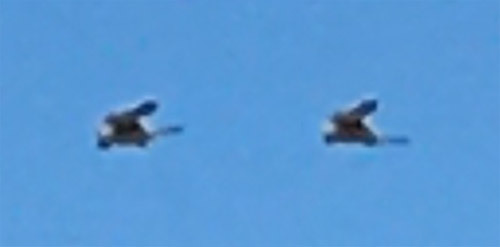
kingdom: Animalia
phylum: Chordata
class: Aves
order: Falconiformes
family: Falconidae
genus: Falco
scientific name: Falco tinnunculus
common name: Common kestrel
